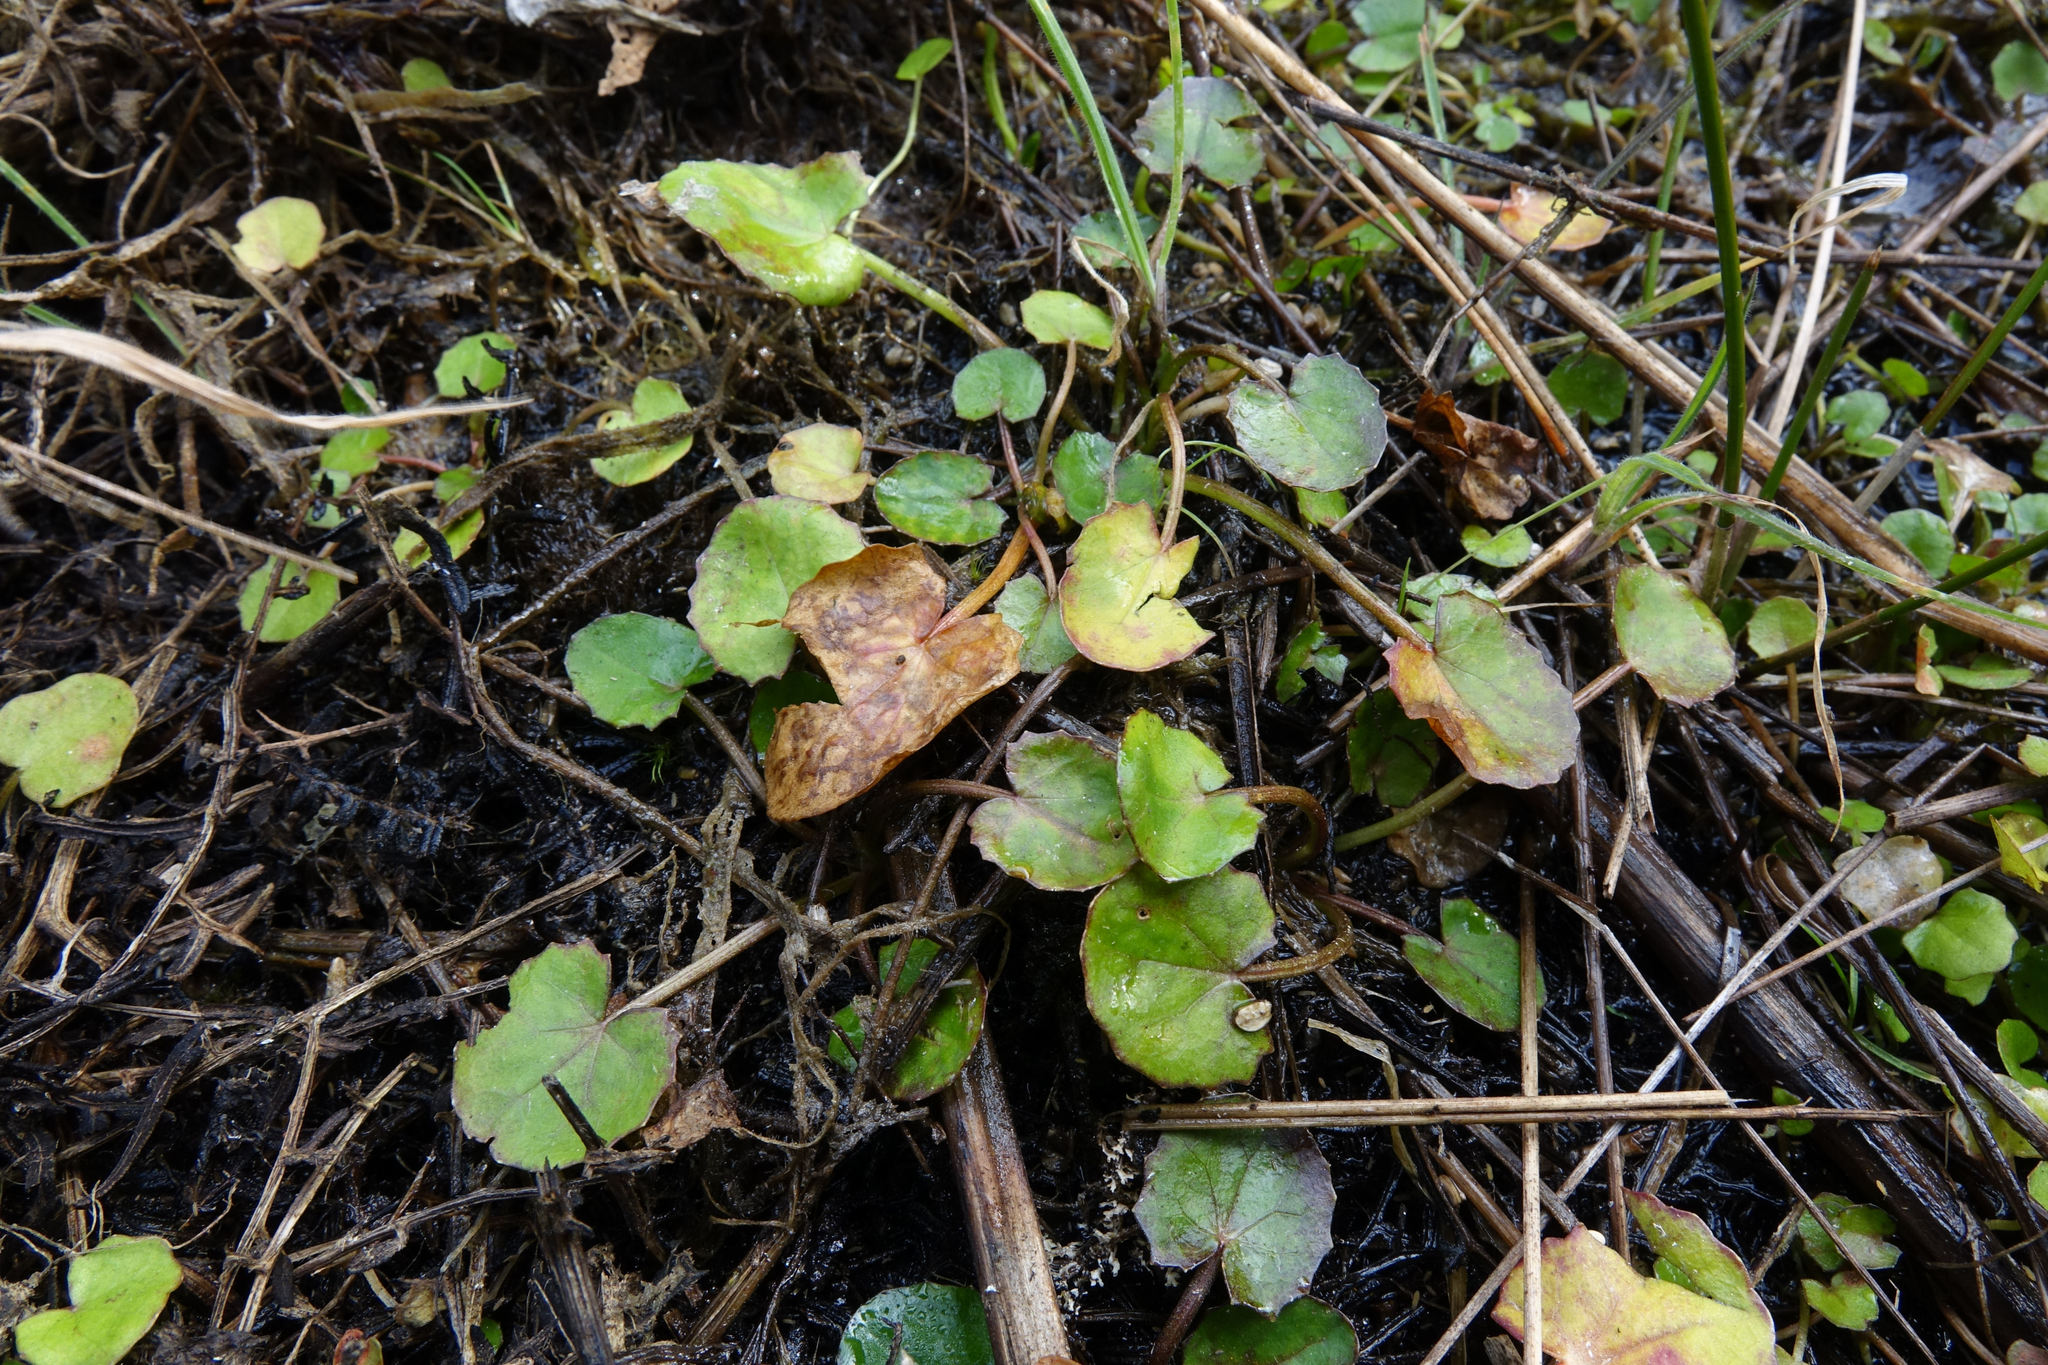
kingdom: Plantae
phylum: Tracheophyta
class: Magnoliopsida
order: Apiales
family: Apiaceae
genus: Centella
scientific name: Centella uniflora
